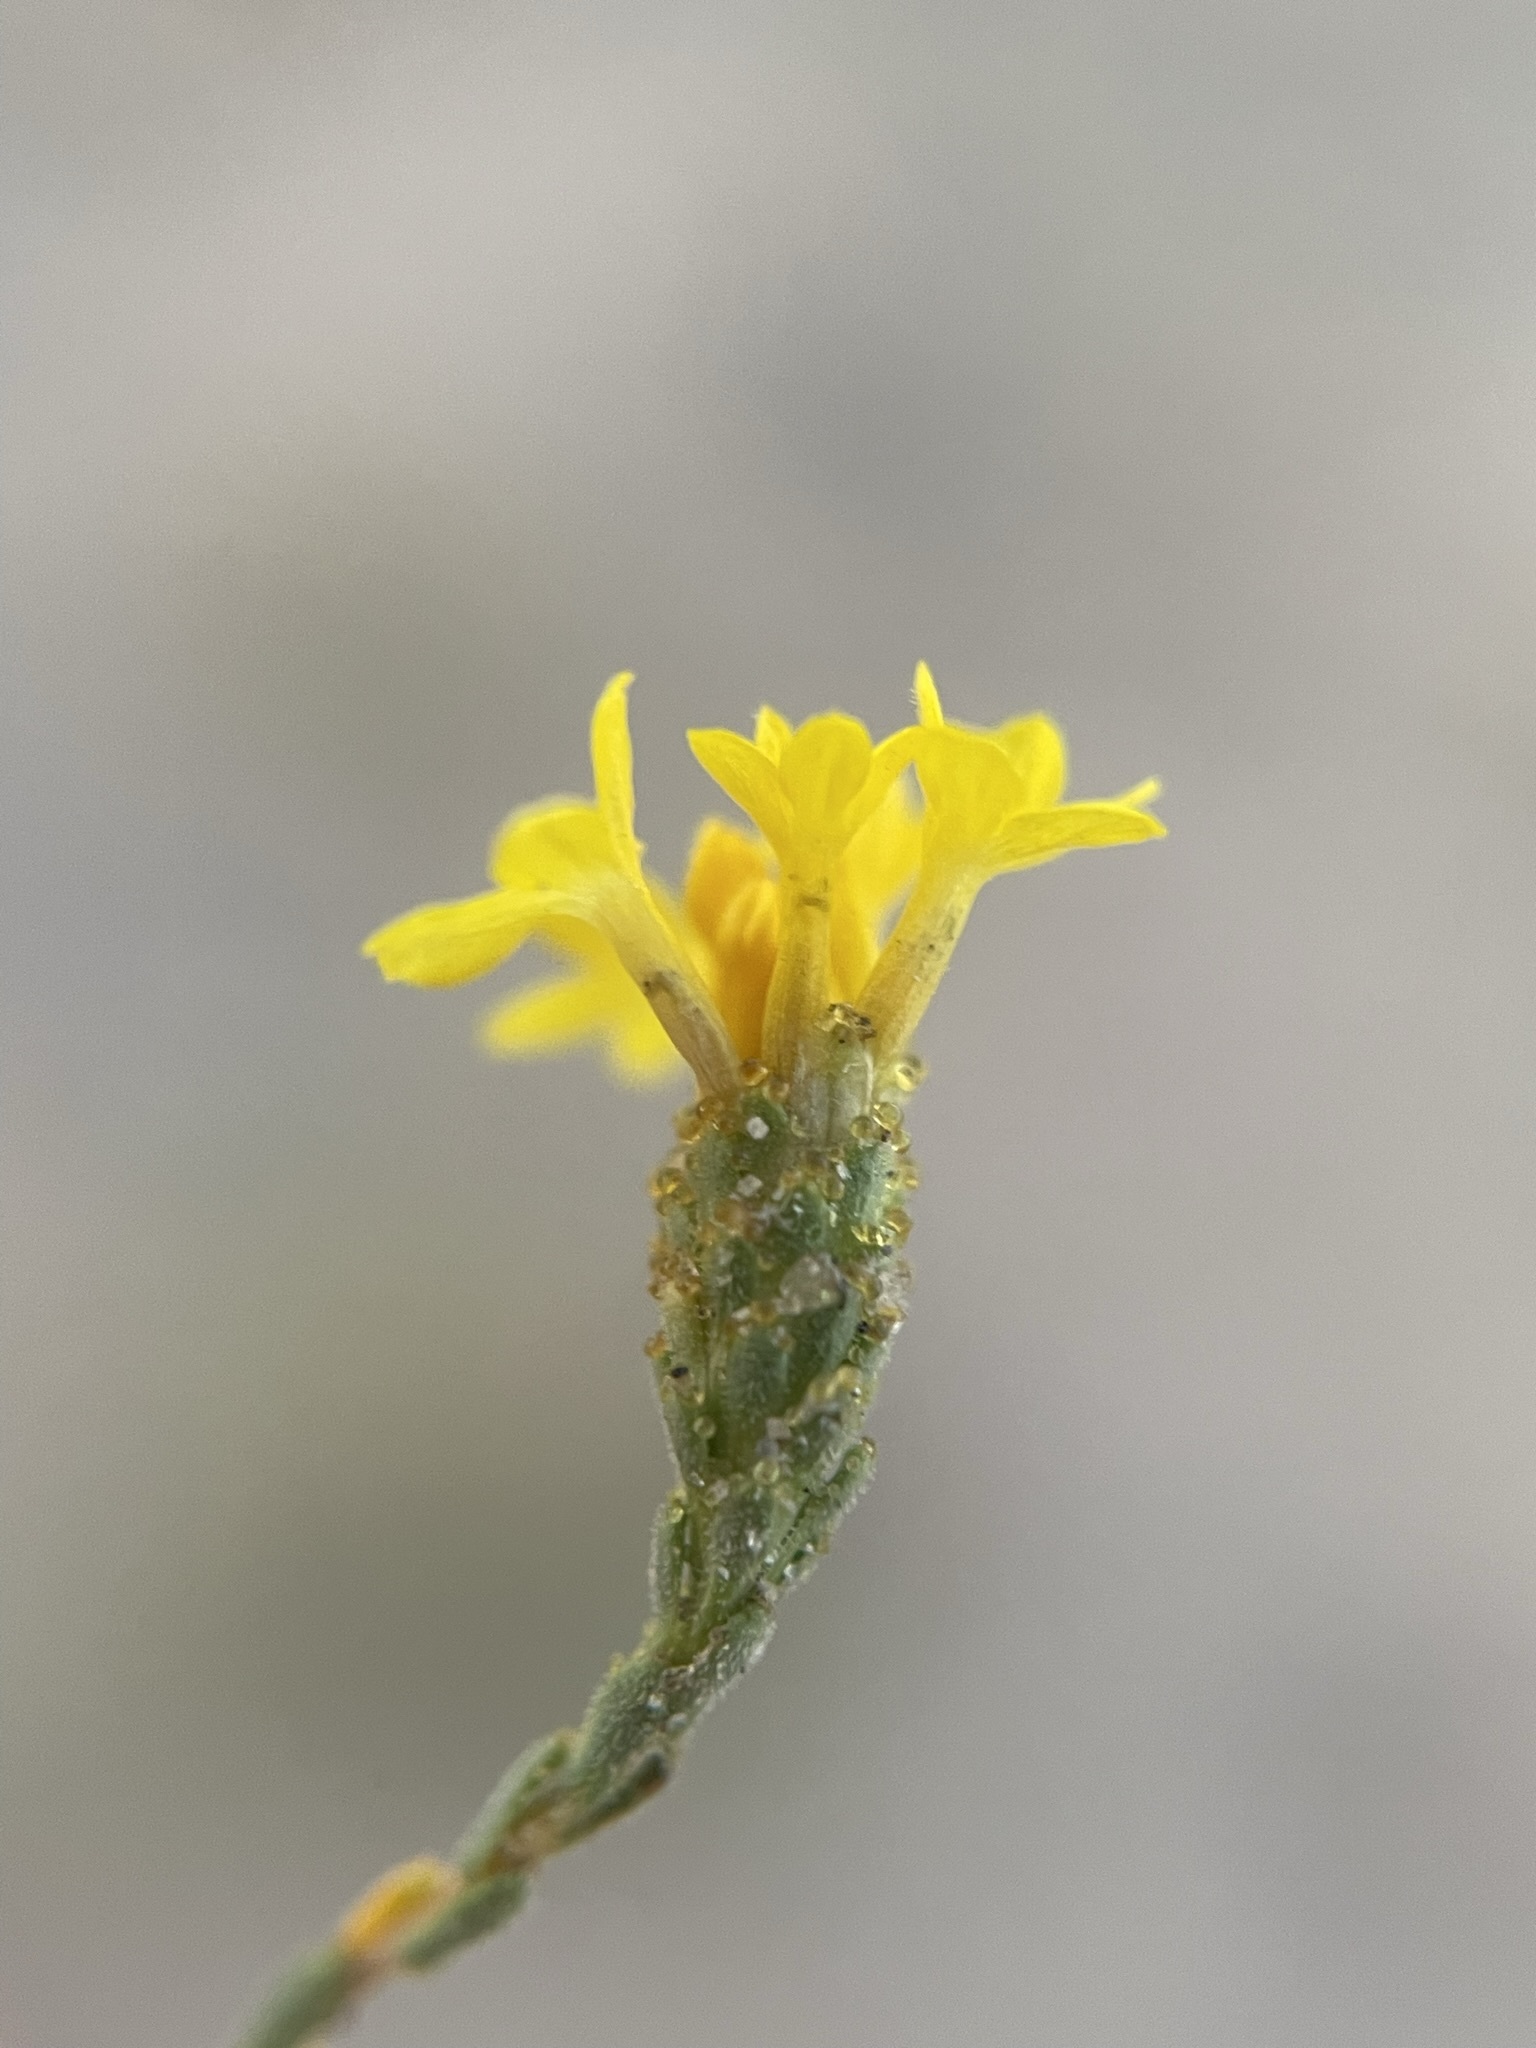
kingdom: Plantae
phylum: Tracheophyta
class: Magnoliopsida
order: Asterales
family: Asteraceae
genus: Lessingia
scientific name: Lessingia glandulifera
